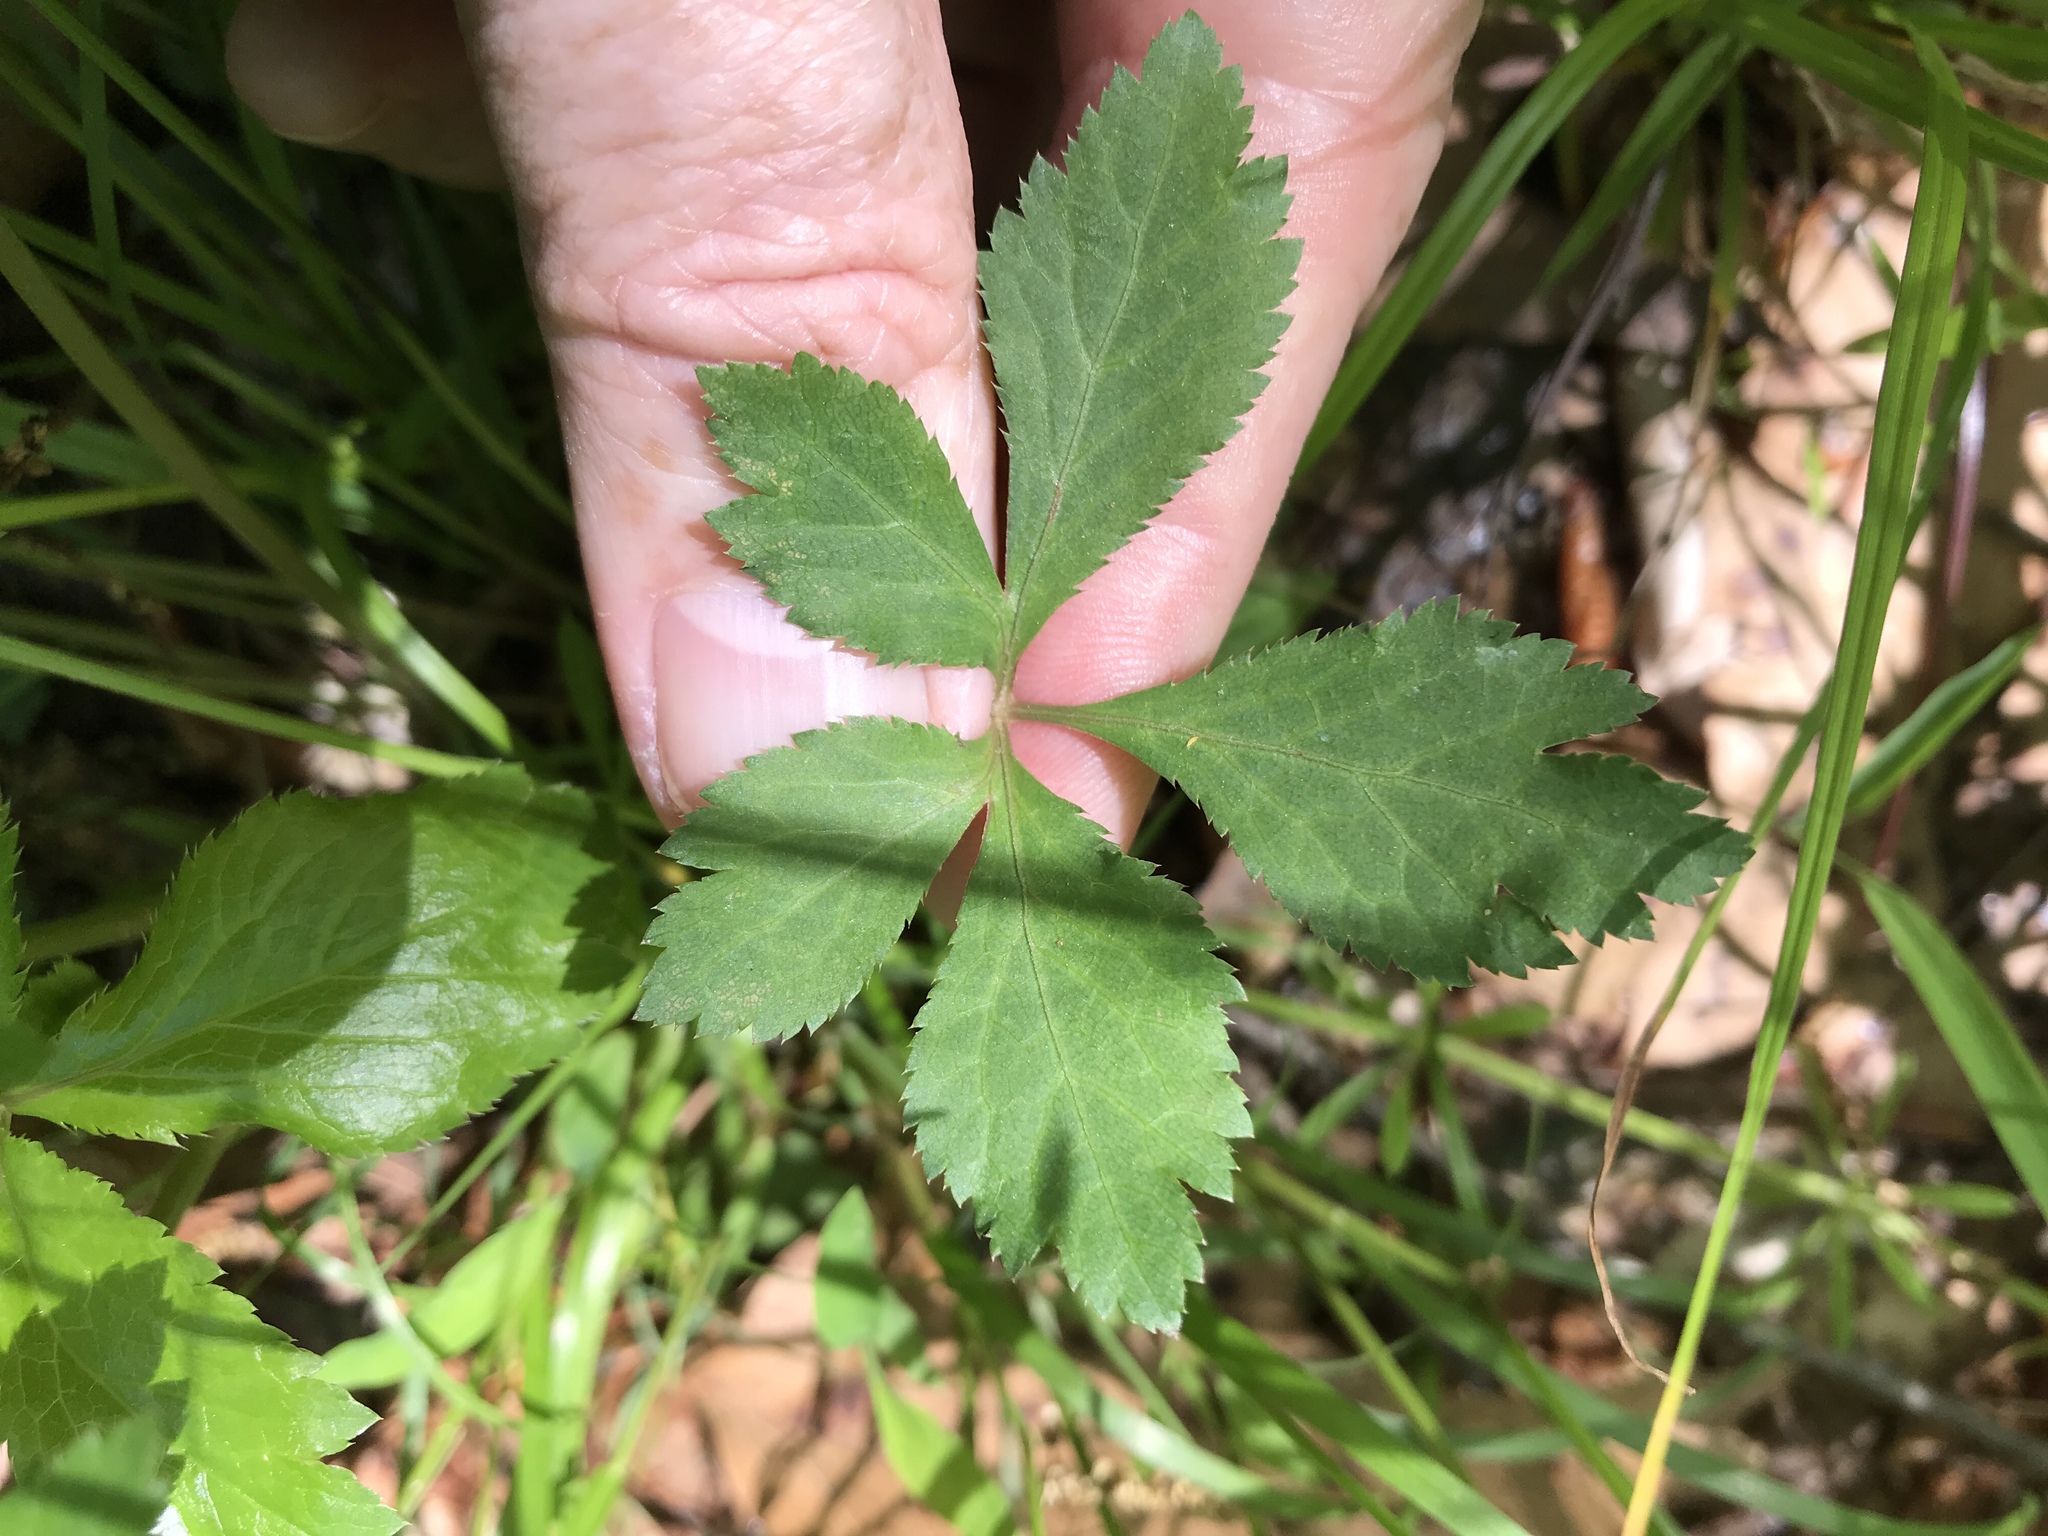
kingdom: Plantae
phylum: Tracheophyta
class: Magnoliopsida
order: Apiales
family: Apiaceae
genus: Sanicula
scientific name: Sanicula canadensis
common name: Canada sanicle
